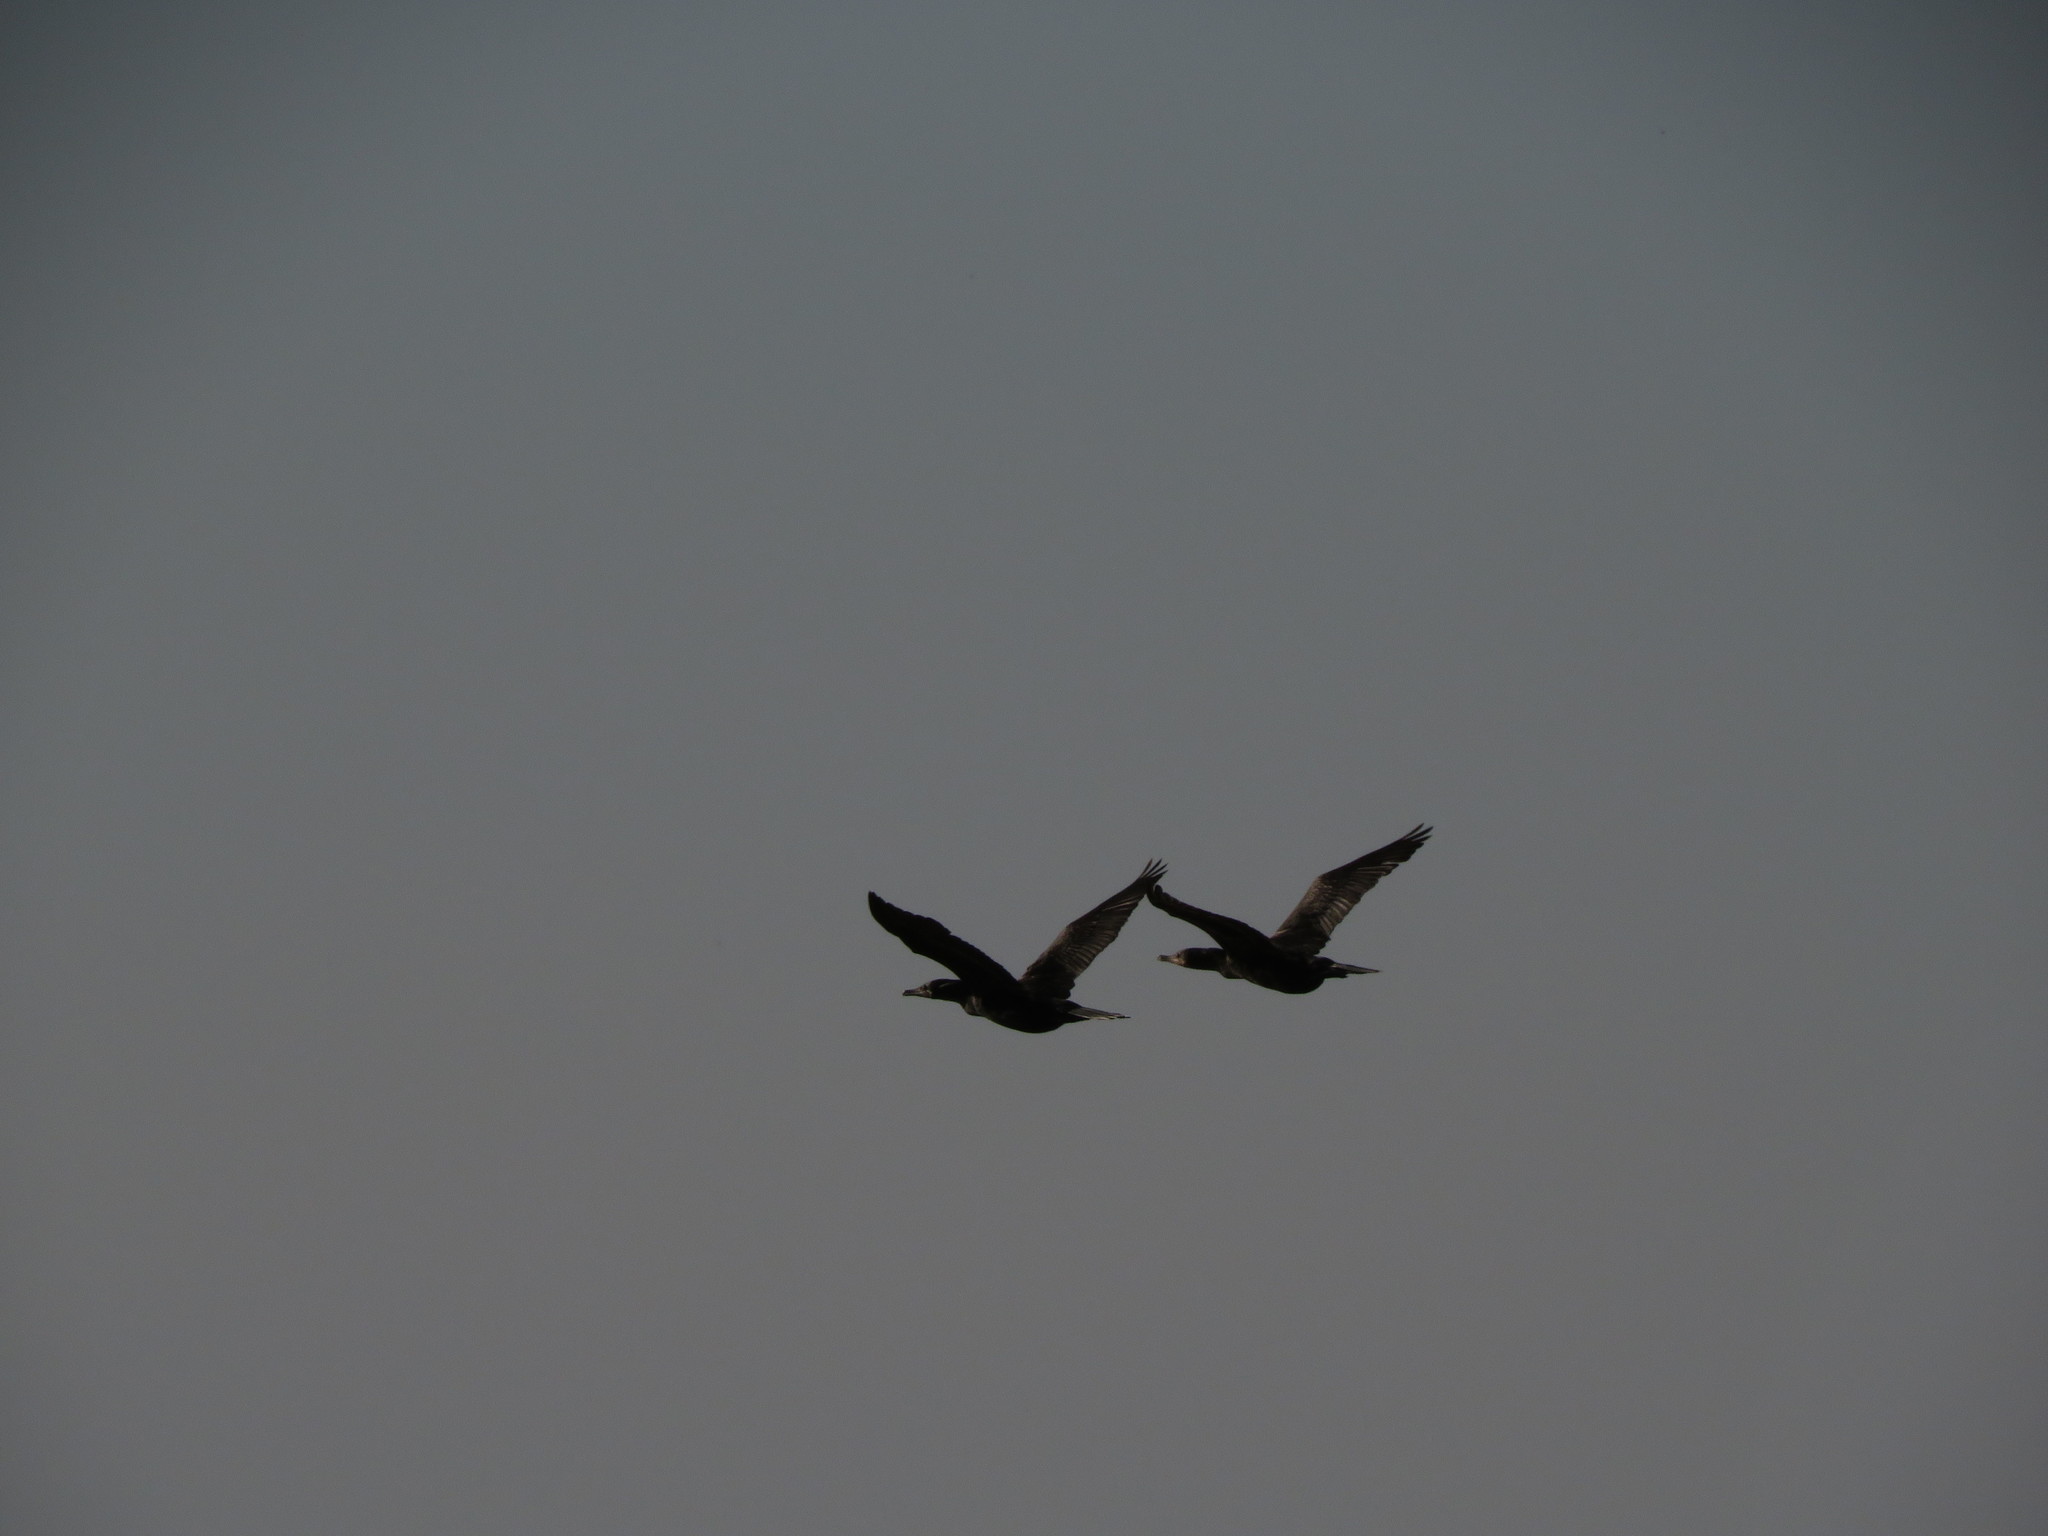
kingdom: Animalia
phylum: Chordata
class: Aves
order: Suliformes
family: Phalacrocoracidae
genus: Phalacrocorax
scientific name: Phalacrocorax brasilianus
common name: Neotropic cormorant
